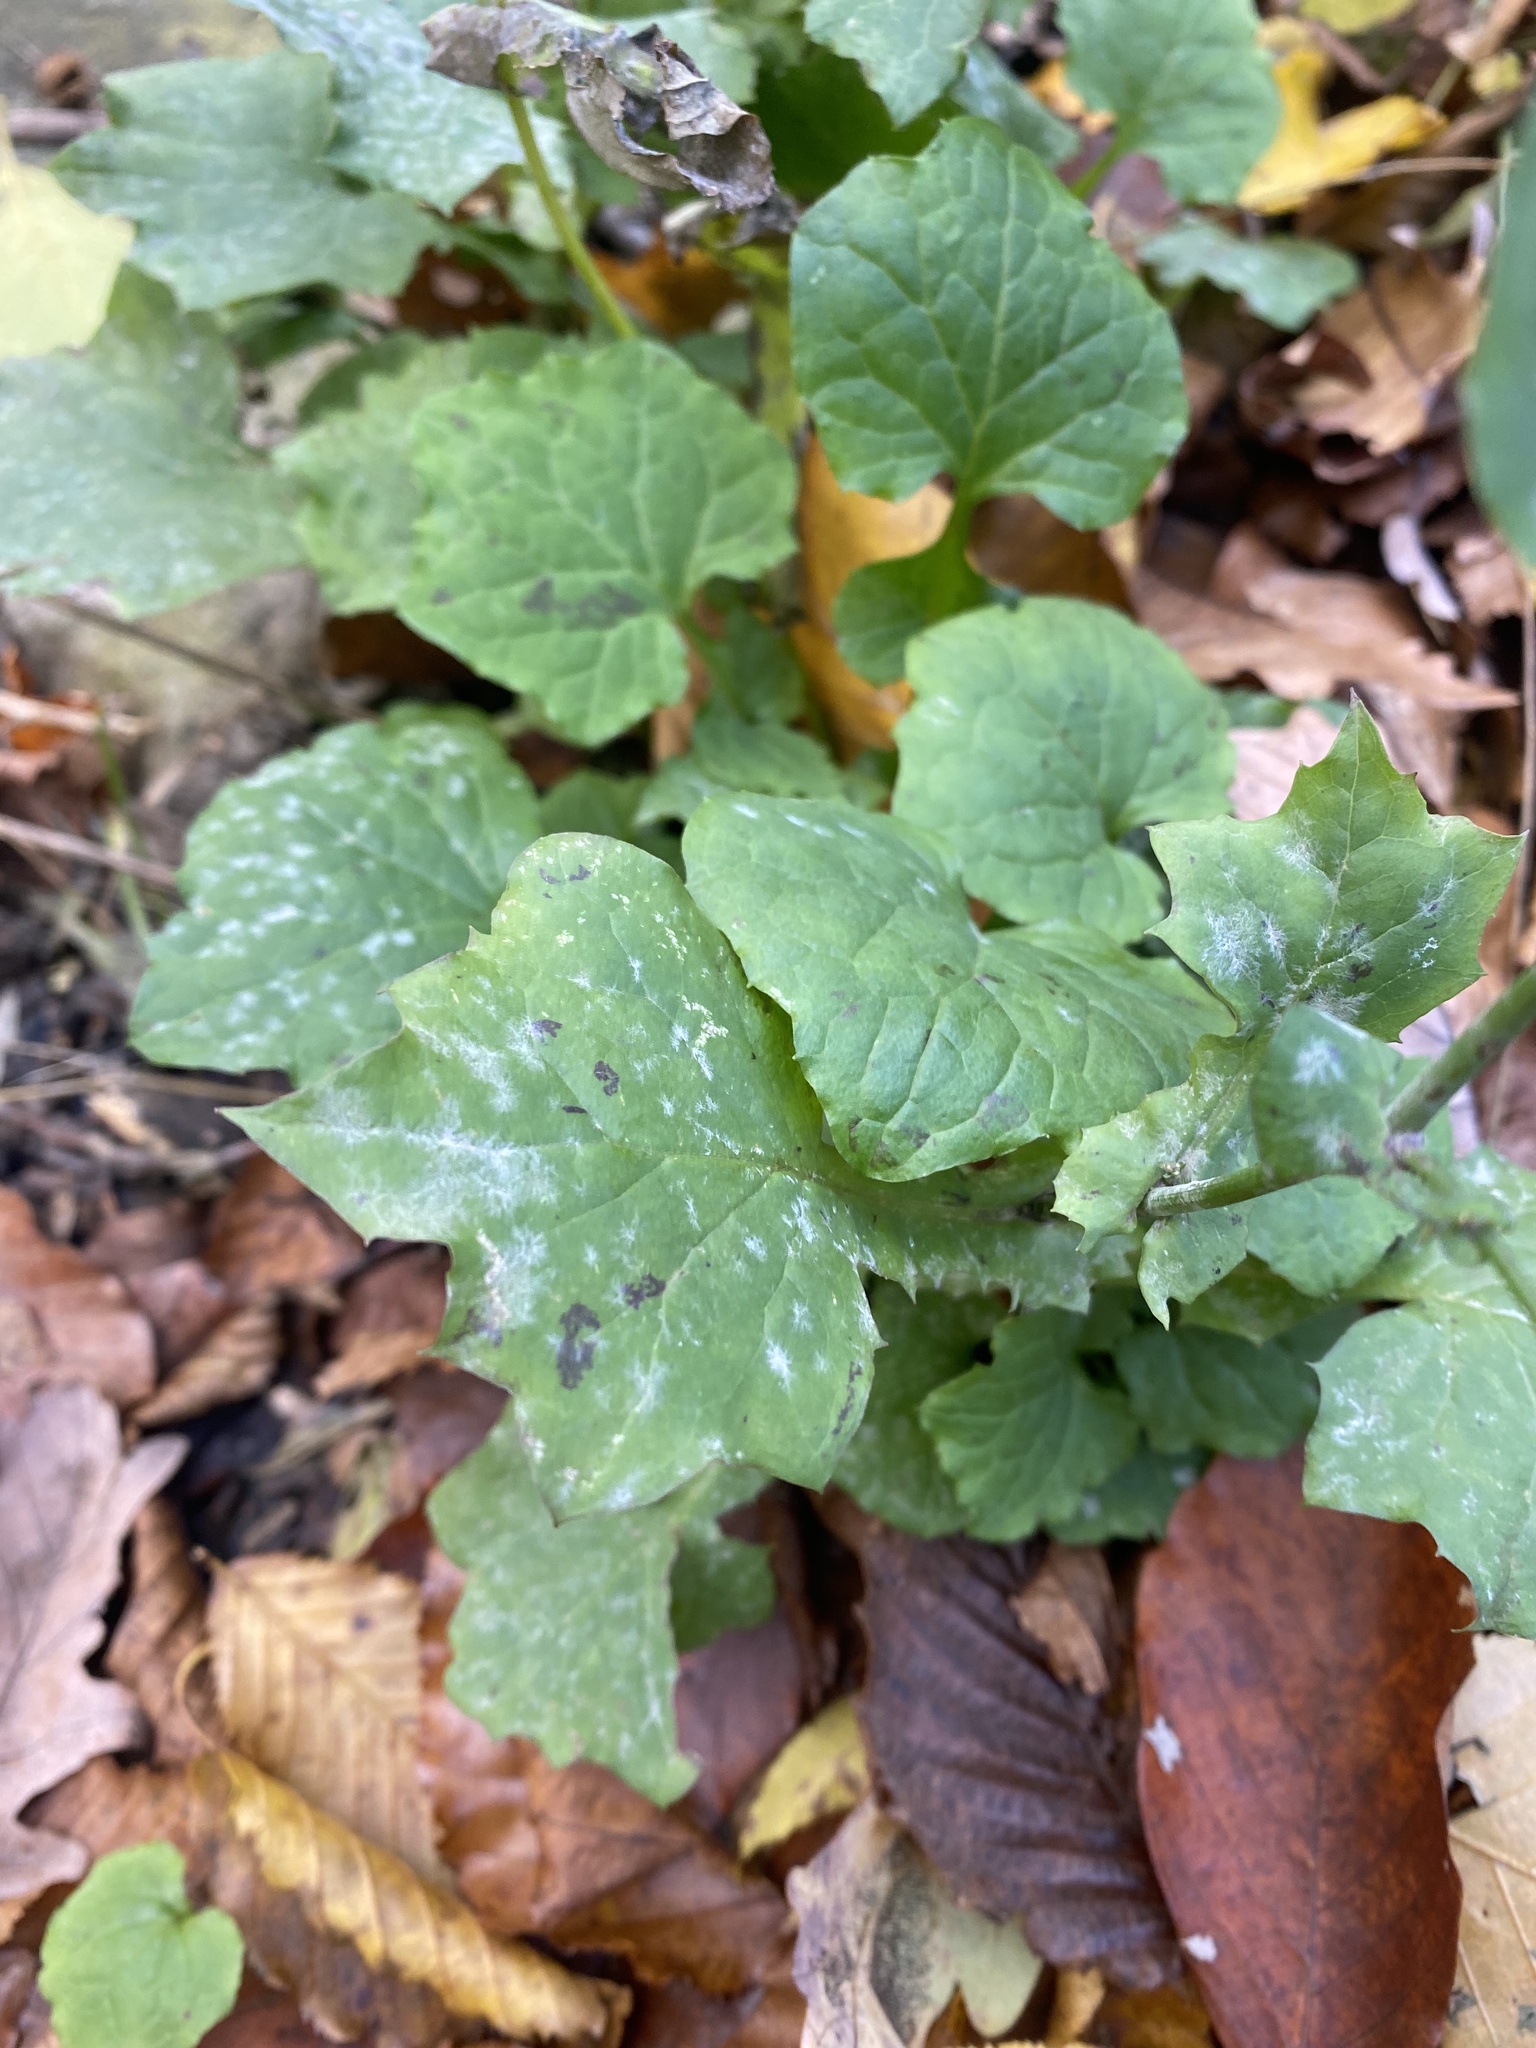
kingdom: Plantae
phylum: Tracheophyta
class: Magnoliopsida
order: Asterales
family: Asteraceae
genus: Mycelis
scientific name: Mycelis muralis
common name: Wall lettuce
